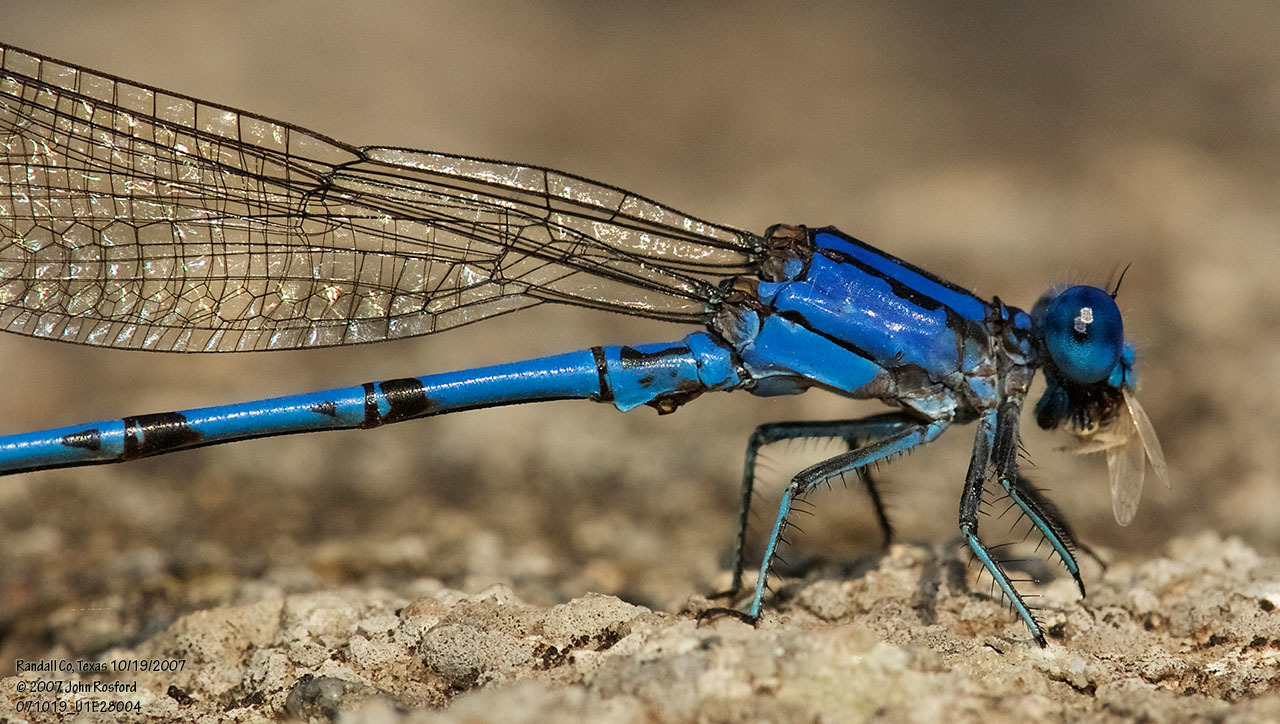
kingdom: Animalia
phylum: Arthropoda
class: Insecta
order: Odonata
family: Coenagrionidae
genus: Argia
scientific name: Argia funebris
